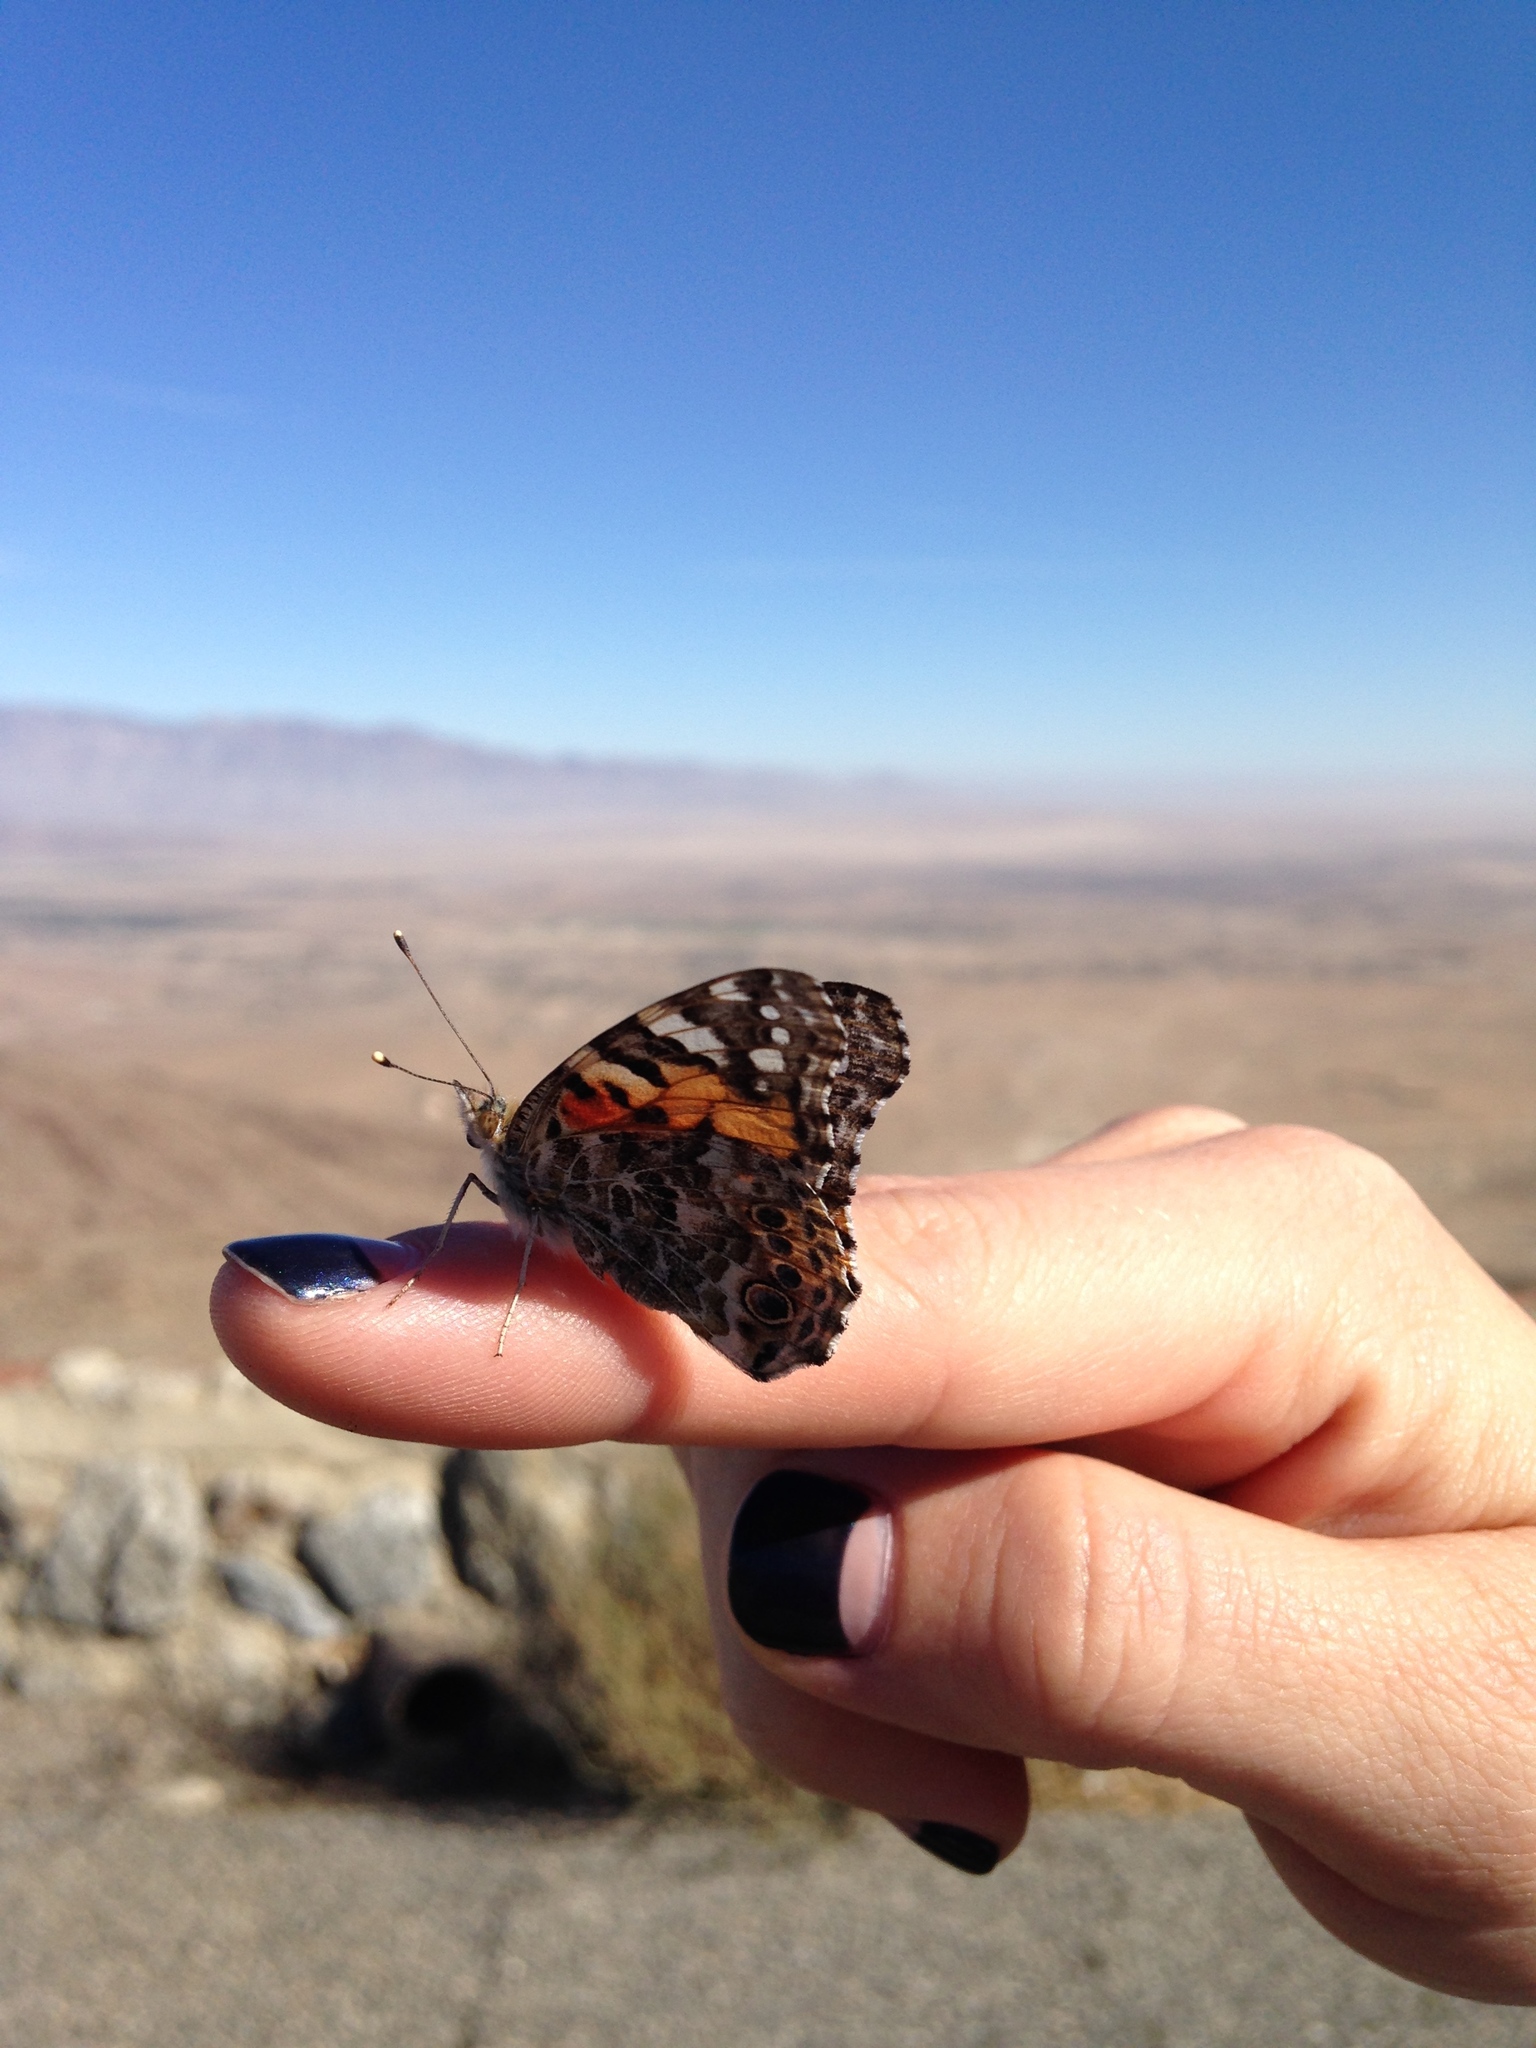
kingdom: Animalia
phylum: Arthropoda
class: Insecta
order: Lepidoptera
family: Nymphalidae
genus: Vanessa
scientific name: Vanessa cardui
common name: Painted lady
